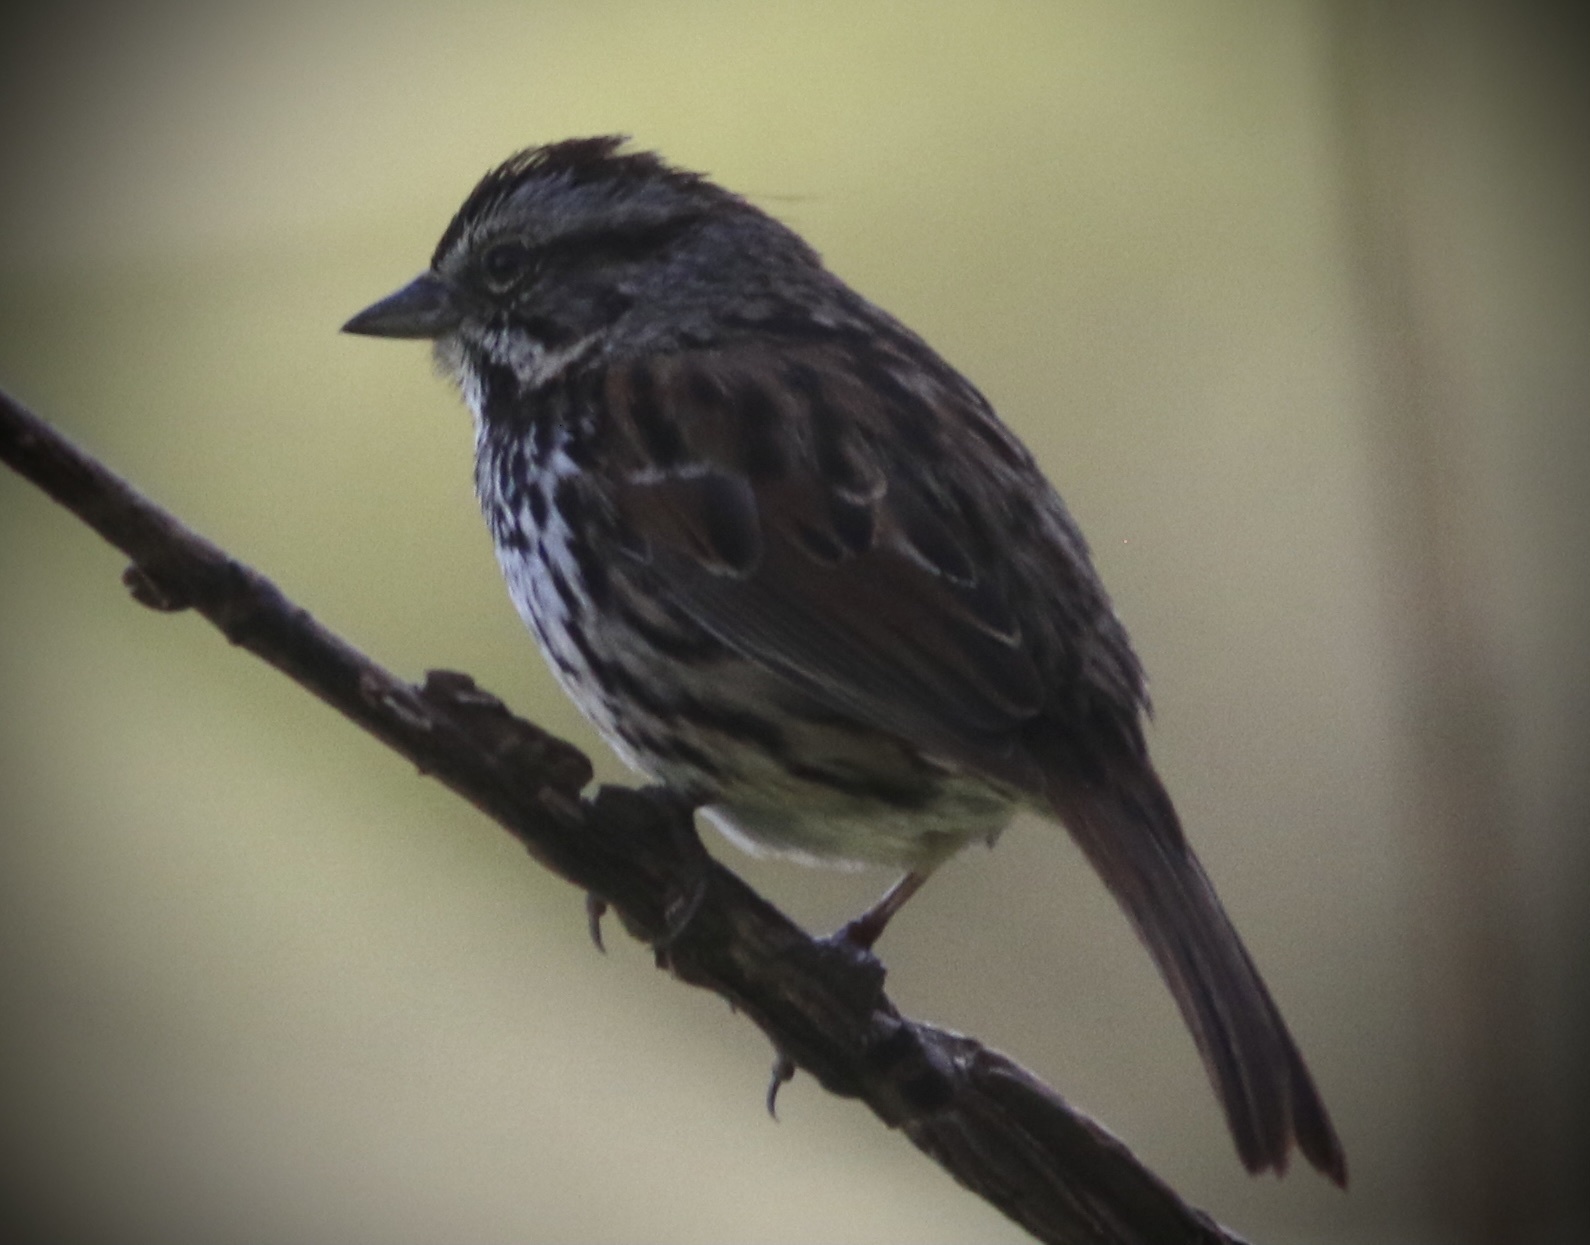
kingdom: Animalia
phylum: Chordata
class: Aves
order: Passeriformes
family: Passerellidae
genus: Melospiza
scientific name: Melospiza melodia
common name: Song sparrow
